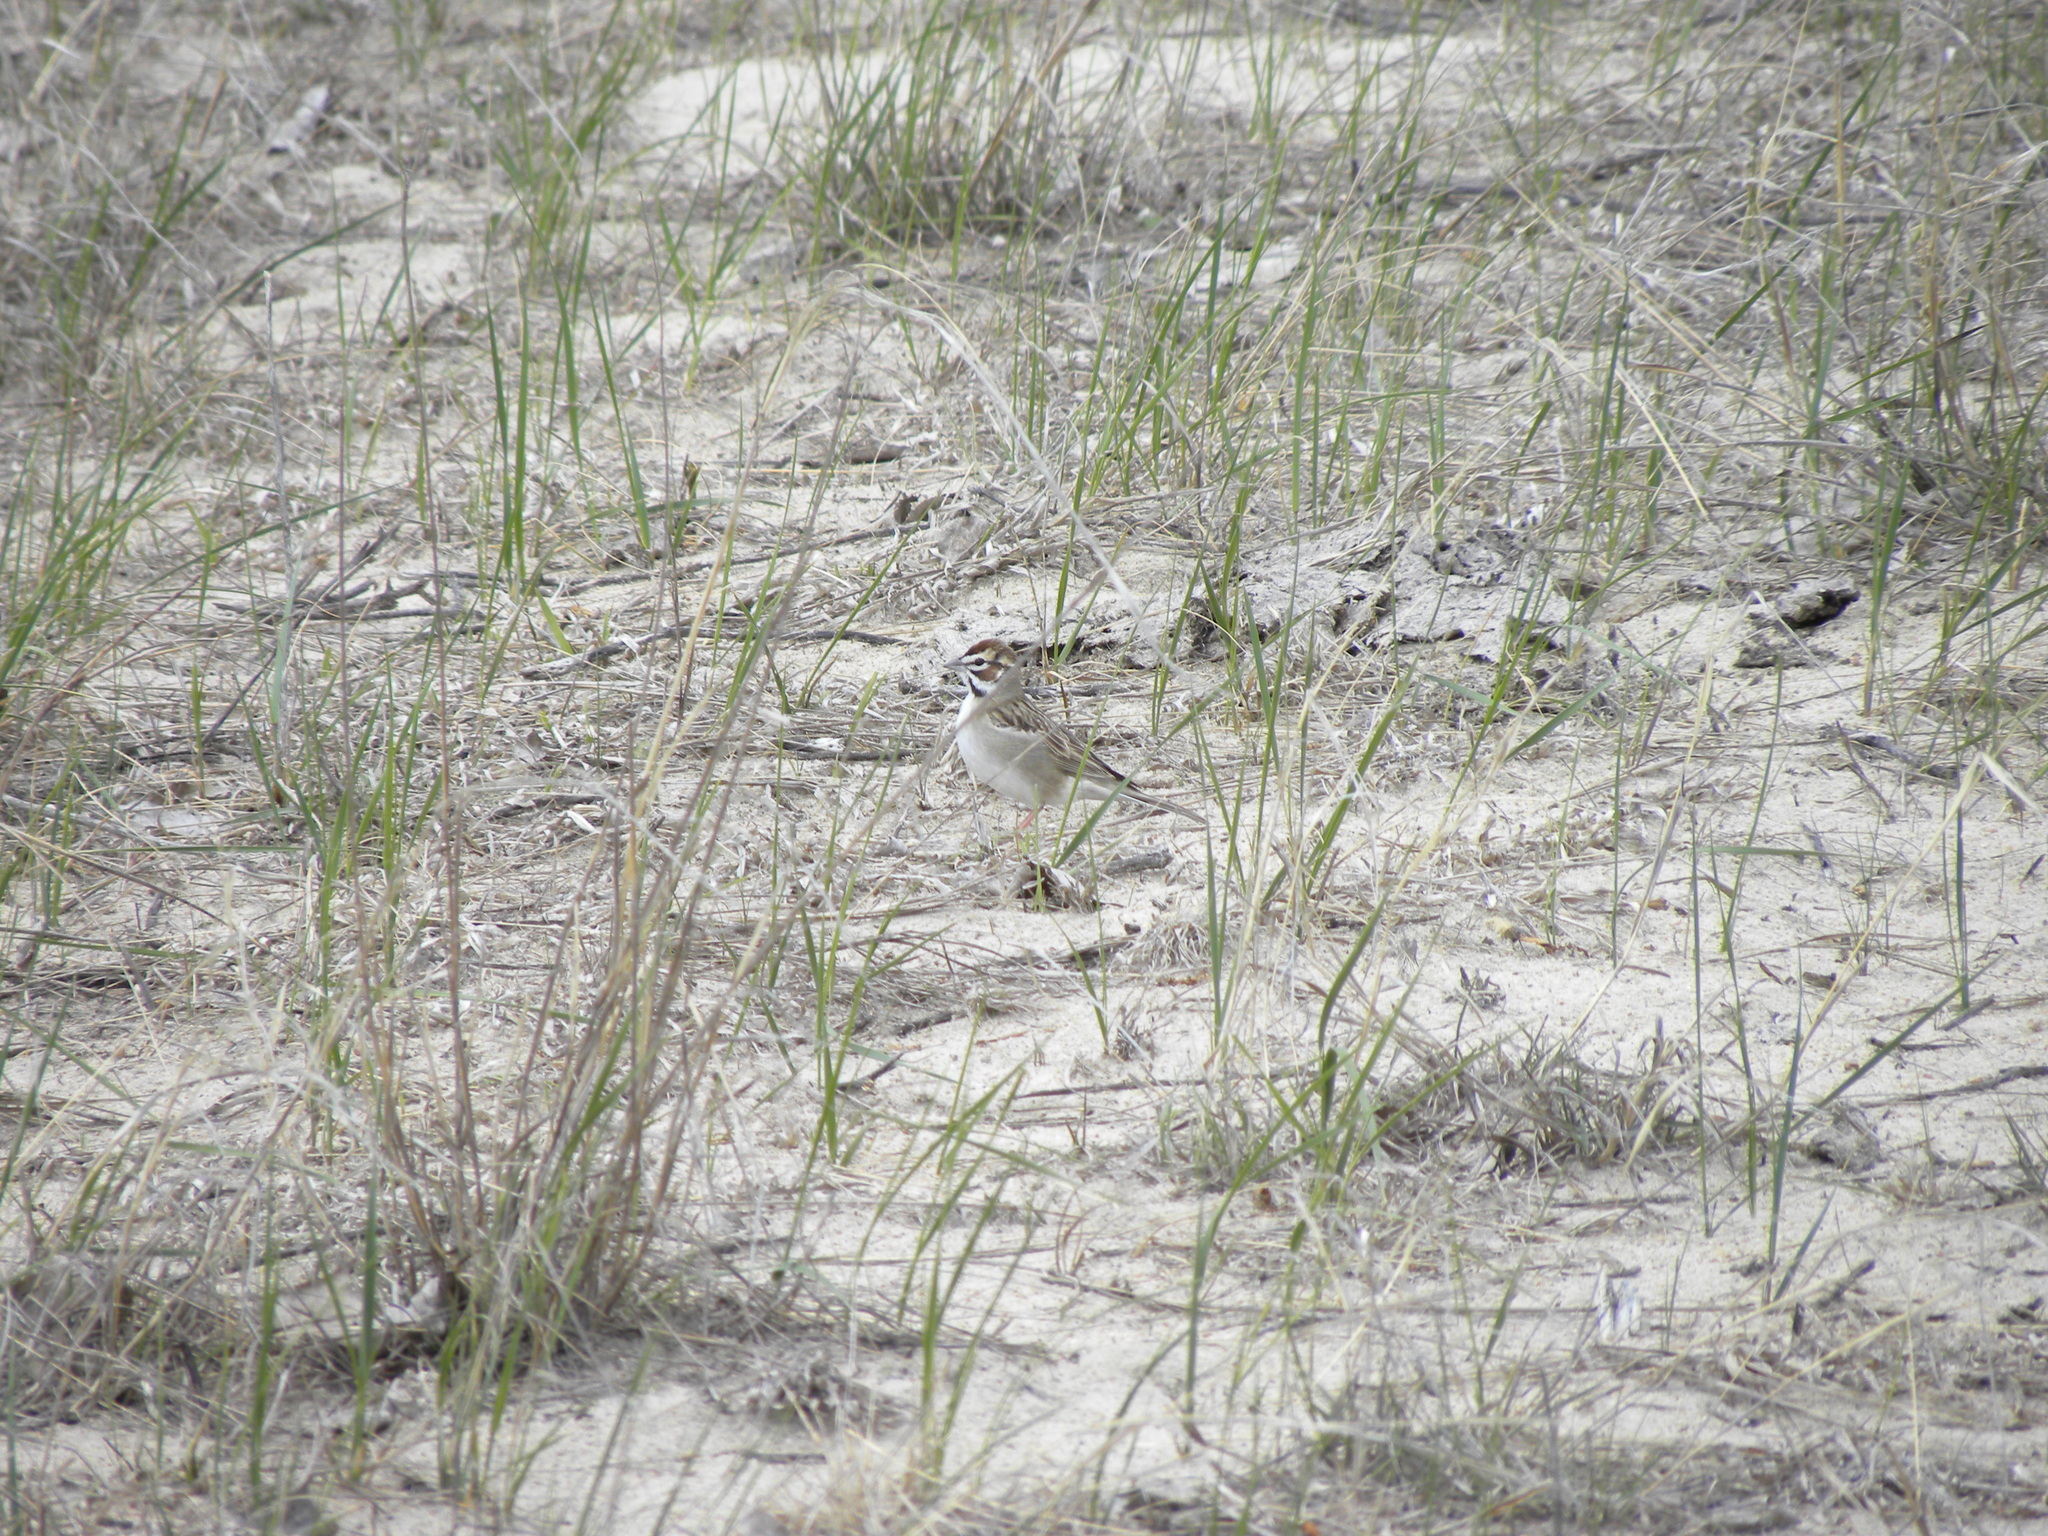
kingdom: Animalia
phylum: Chordata
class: Aves
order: Passeriformes
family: Passerellidae
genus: Chondestes
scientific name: Chondestes grammacus
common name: Lark sparrow
